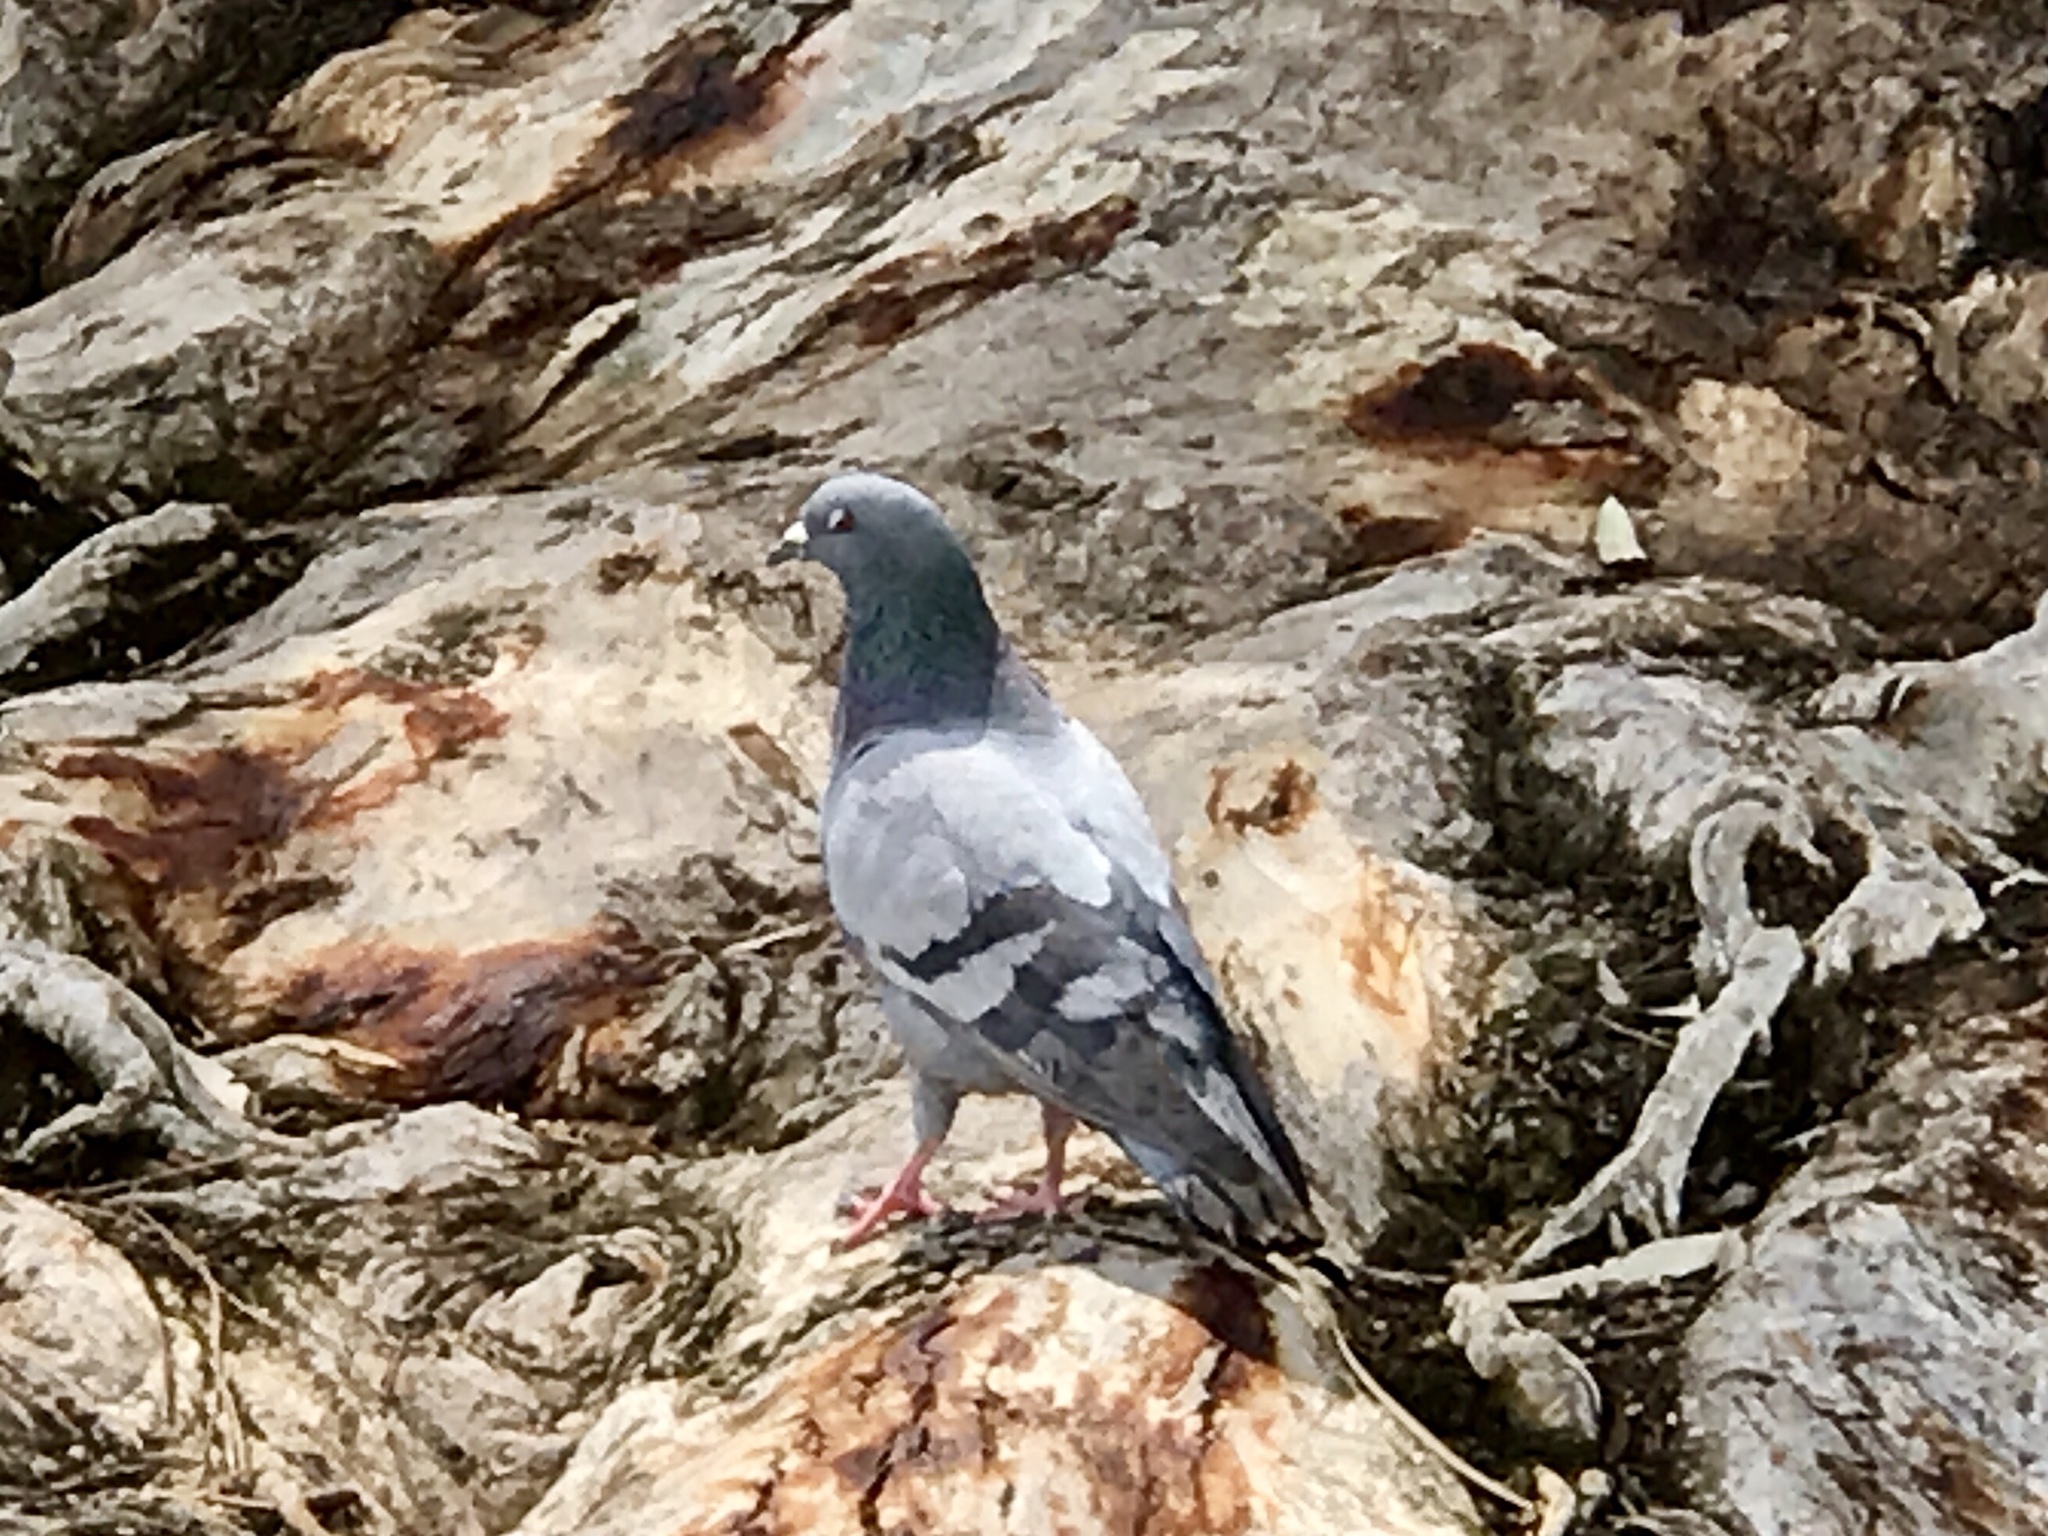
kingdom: Animalia
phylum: Chordata
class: Aves
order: Columbiformes
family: Columbidae
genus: Columba
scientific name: Columba livia
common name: Rock pigeon
